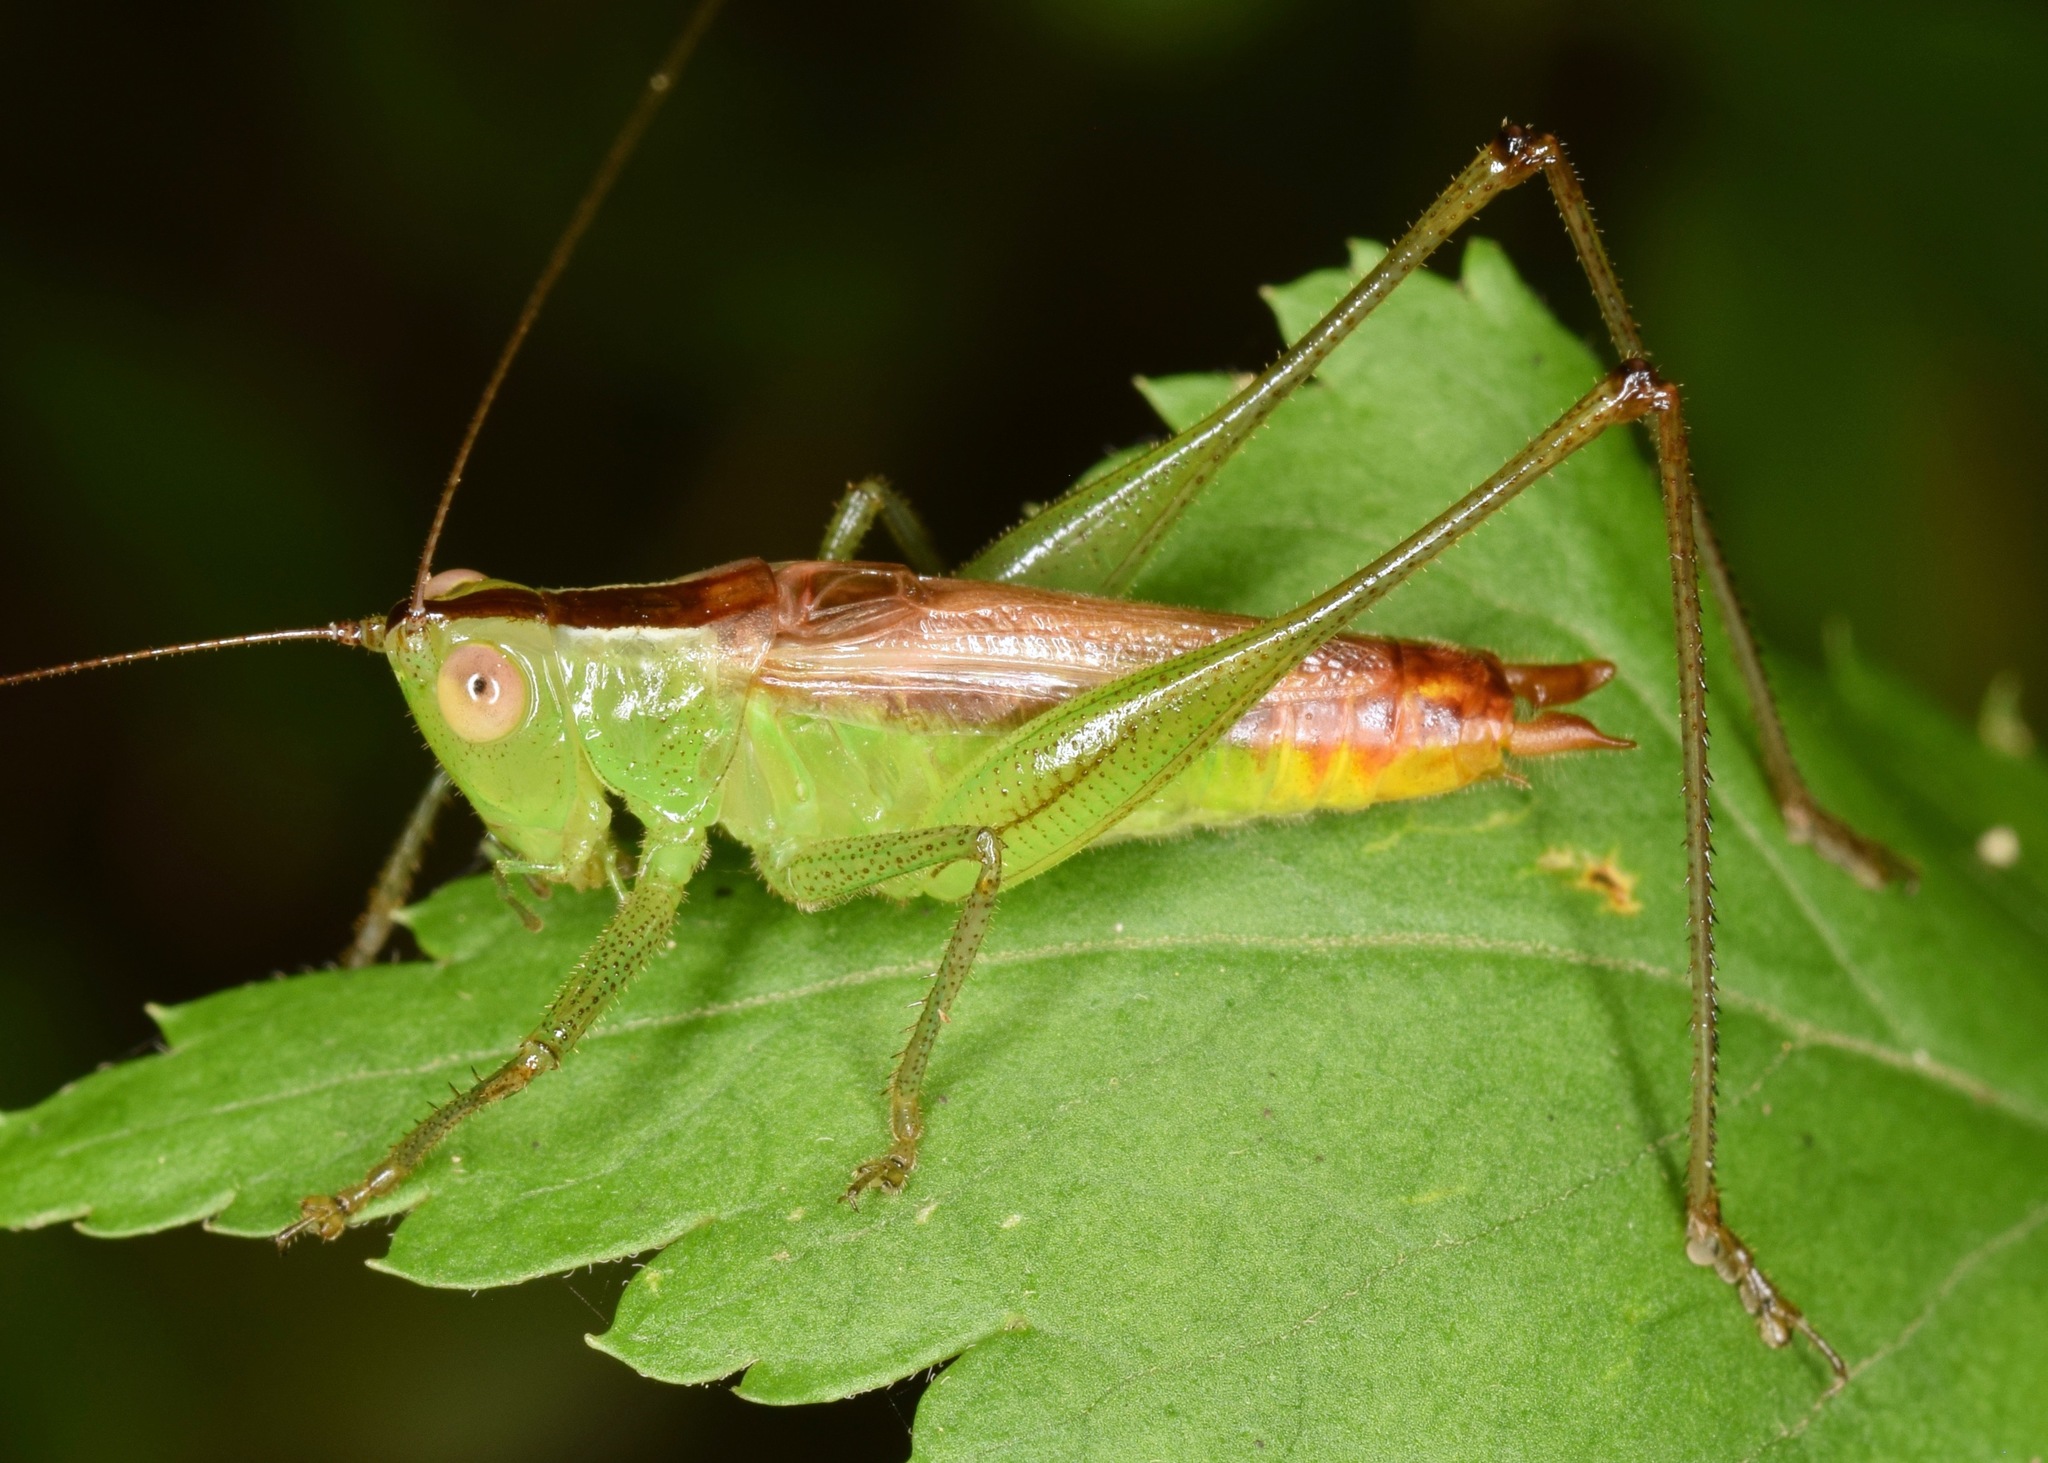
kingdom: Animalia
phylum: Arthropoda
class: Insecta
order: Orthoptera
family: Tettigoniidae
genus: Conocephalus
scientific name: Conocephalus brevipennis
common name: Short-winged meadow katydid
